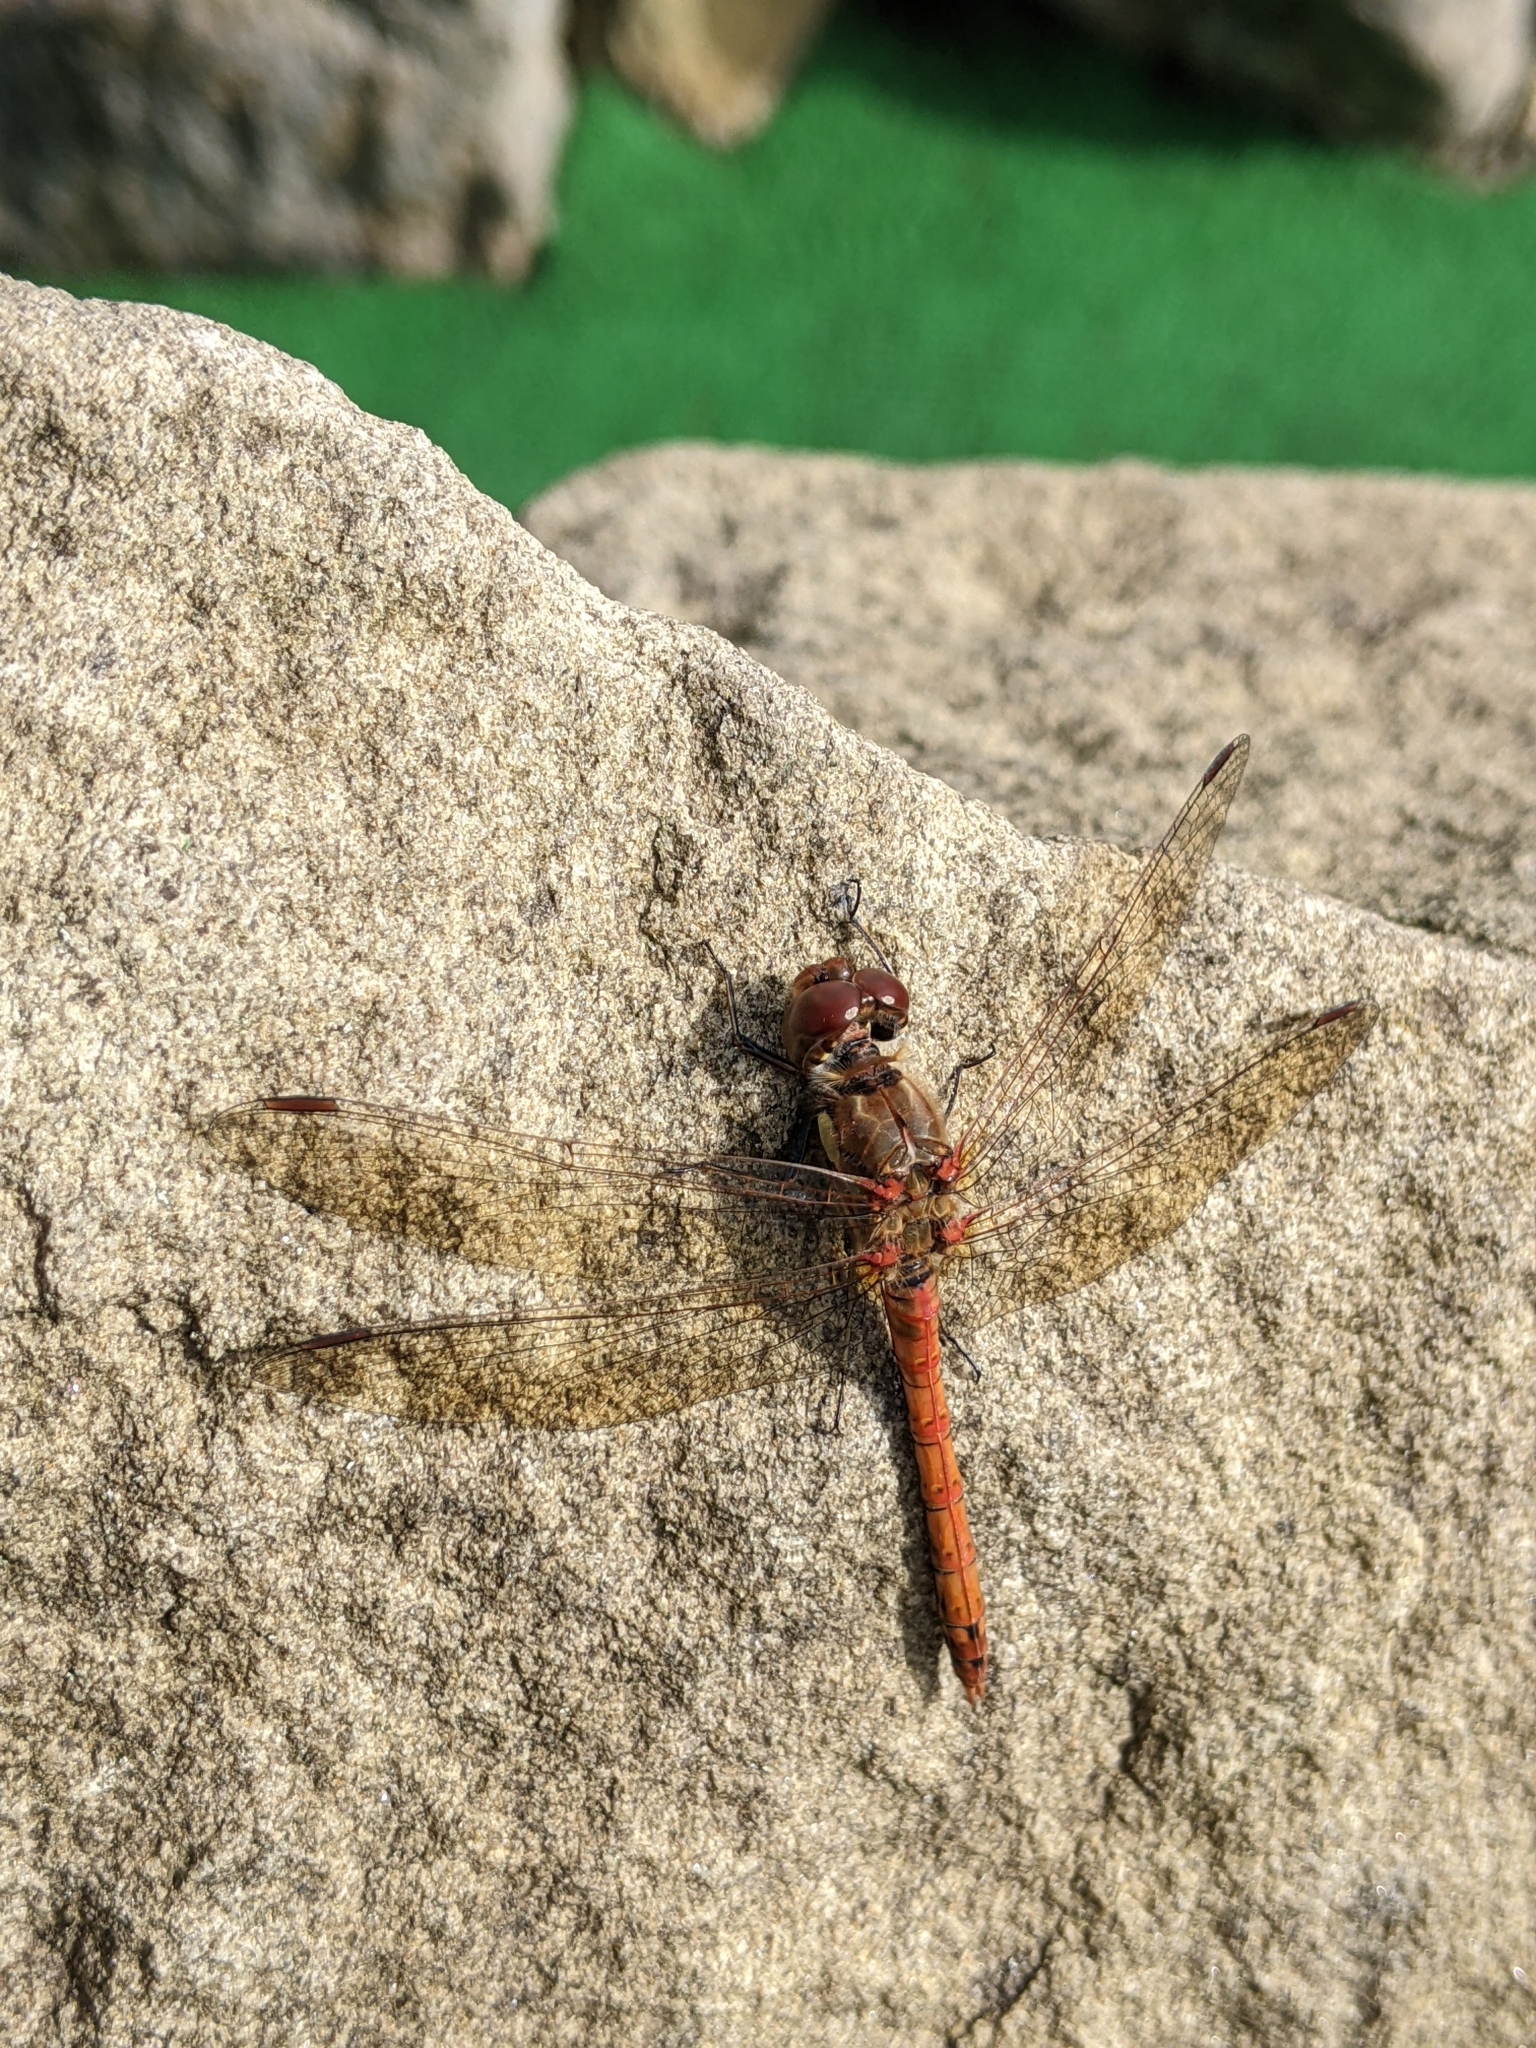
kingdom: Animalia
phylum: Arthropoda
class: Insecta
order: Odonata
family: Libellulidae
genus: Sympetrum
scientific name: Sympetrum striolatum
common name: Common darter
